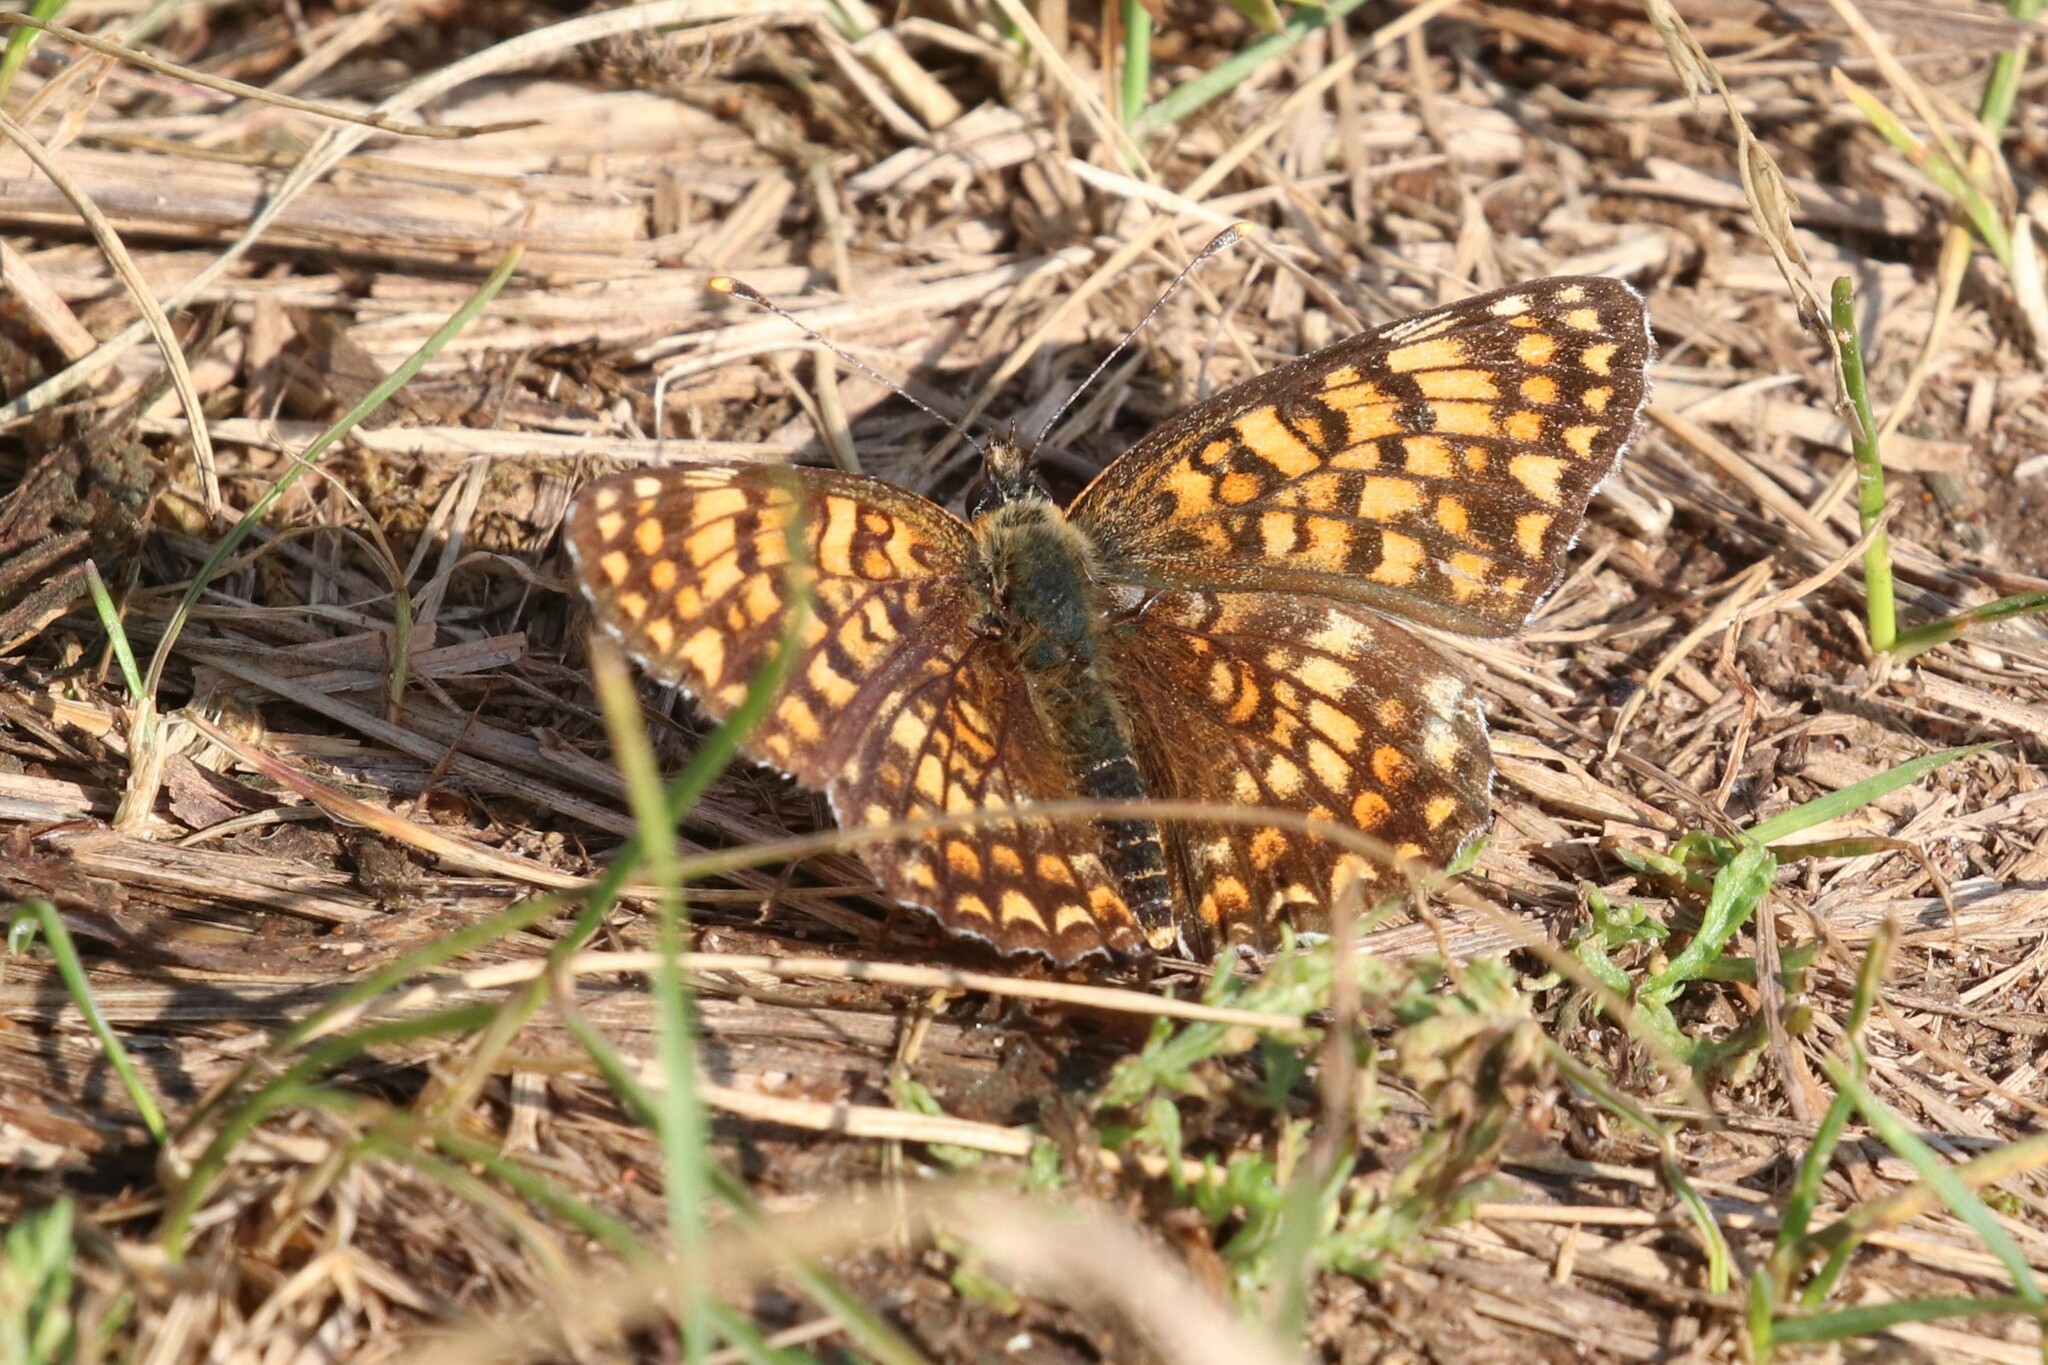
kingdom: Animalia
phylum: Arthropoda
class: Insecta
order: Lepidoptera
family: Nymphalidae
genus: Melitaea
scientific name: Melitaea phoebe
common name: Knapweed fritillary
